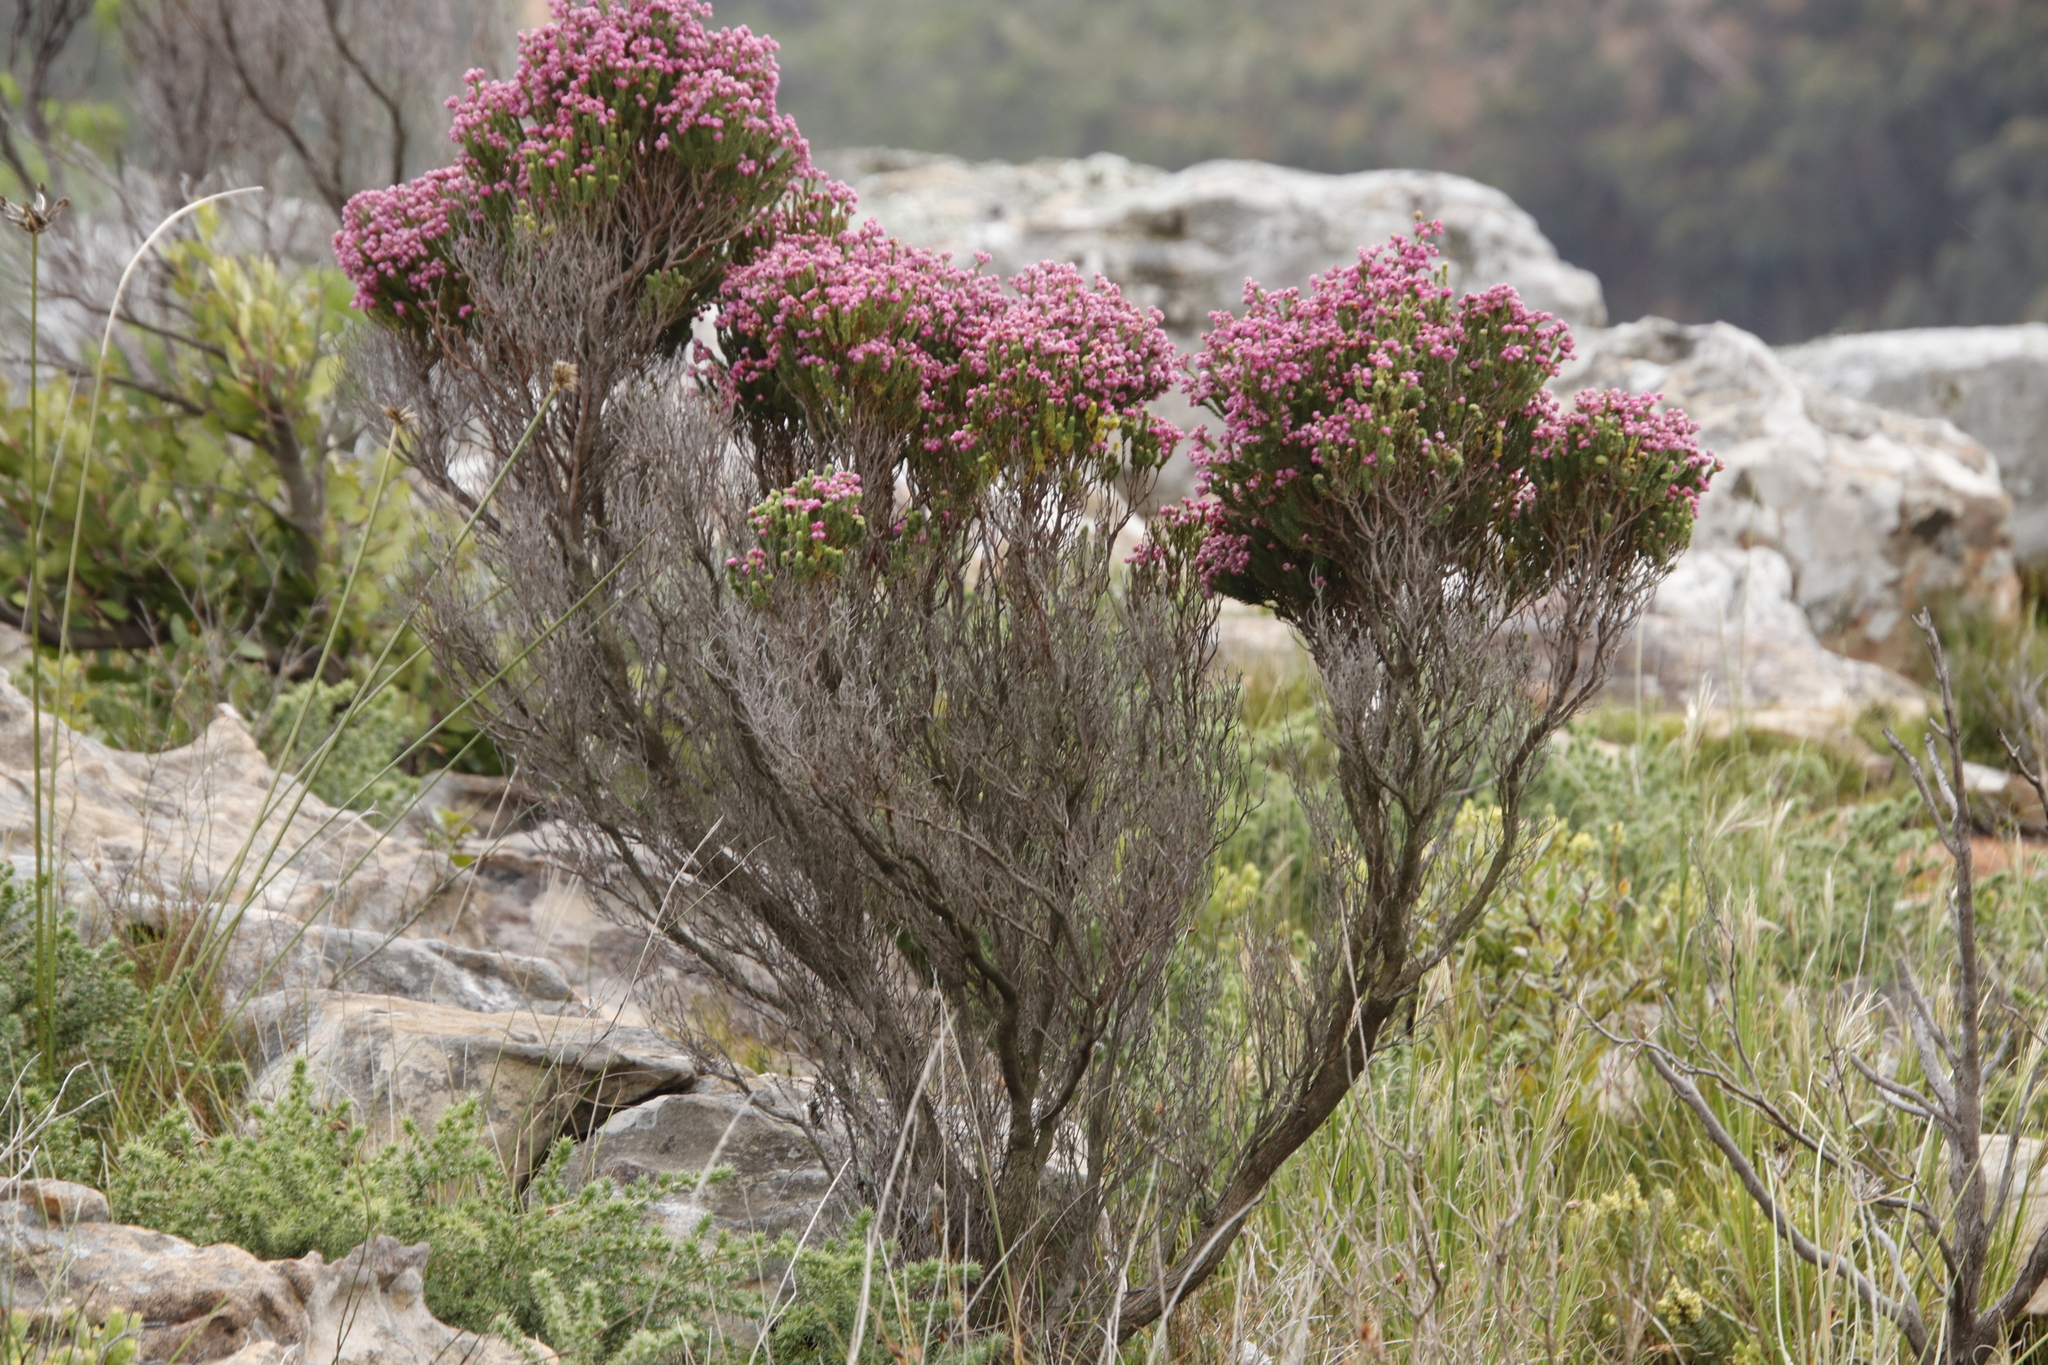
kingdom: Plantae
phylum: Tracheophyta
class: Magnoliopsida
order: Ericales
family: Ericaceae
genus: Erica
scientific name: Erica baccans
